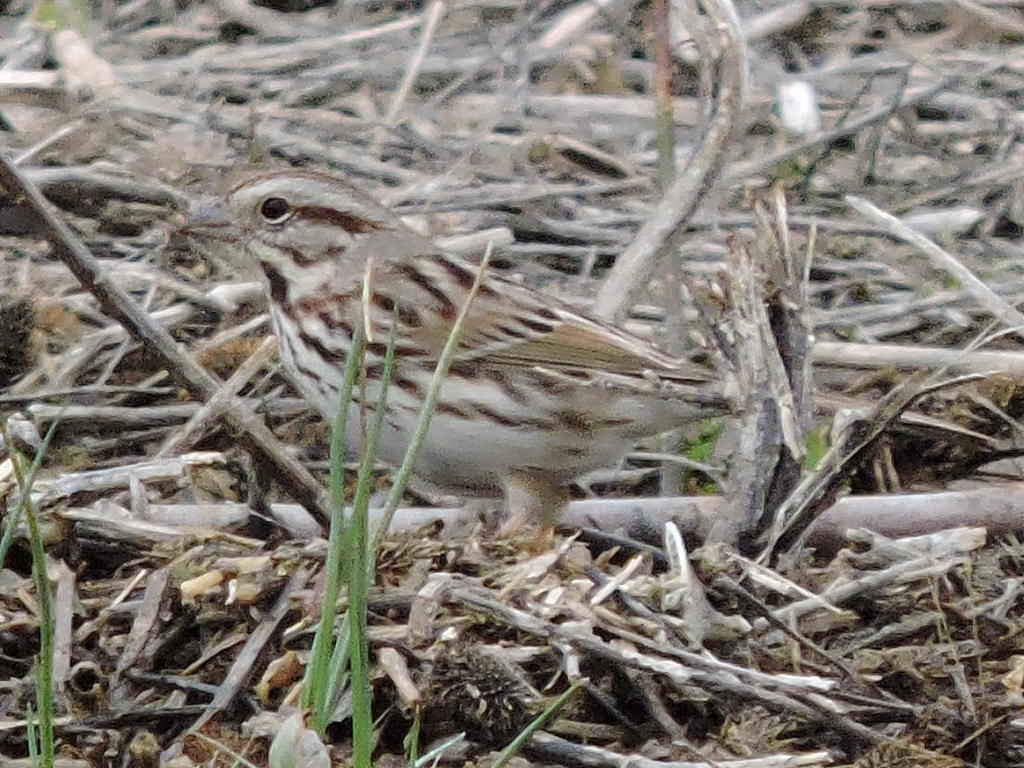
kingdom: Animalia
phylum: Chordata
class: Aves
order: Passeriformes
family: Passerellidae
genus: Melospiza
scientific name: Melospiza melodia
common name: Song sparrow
